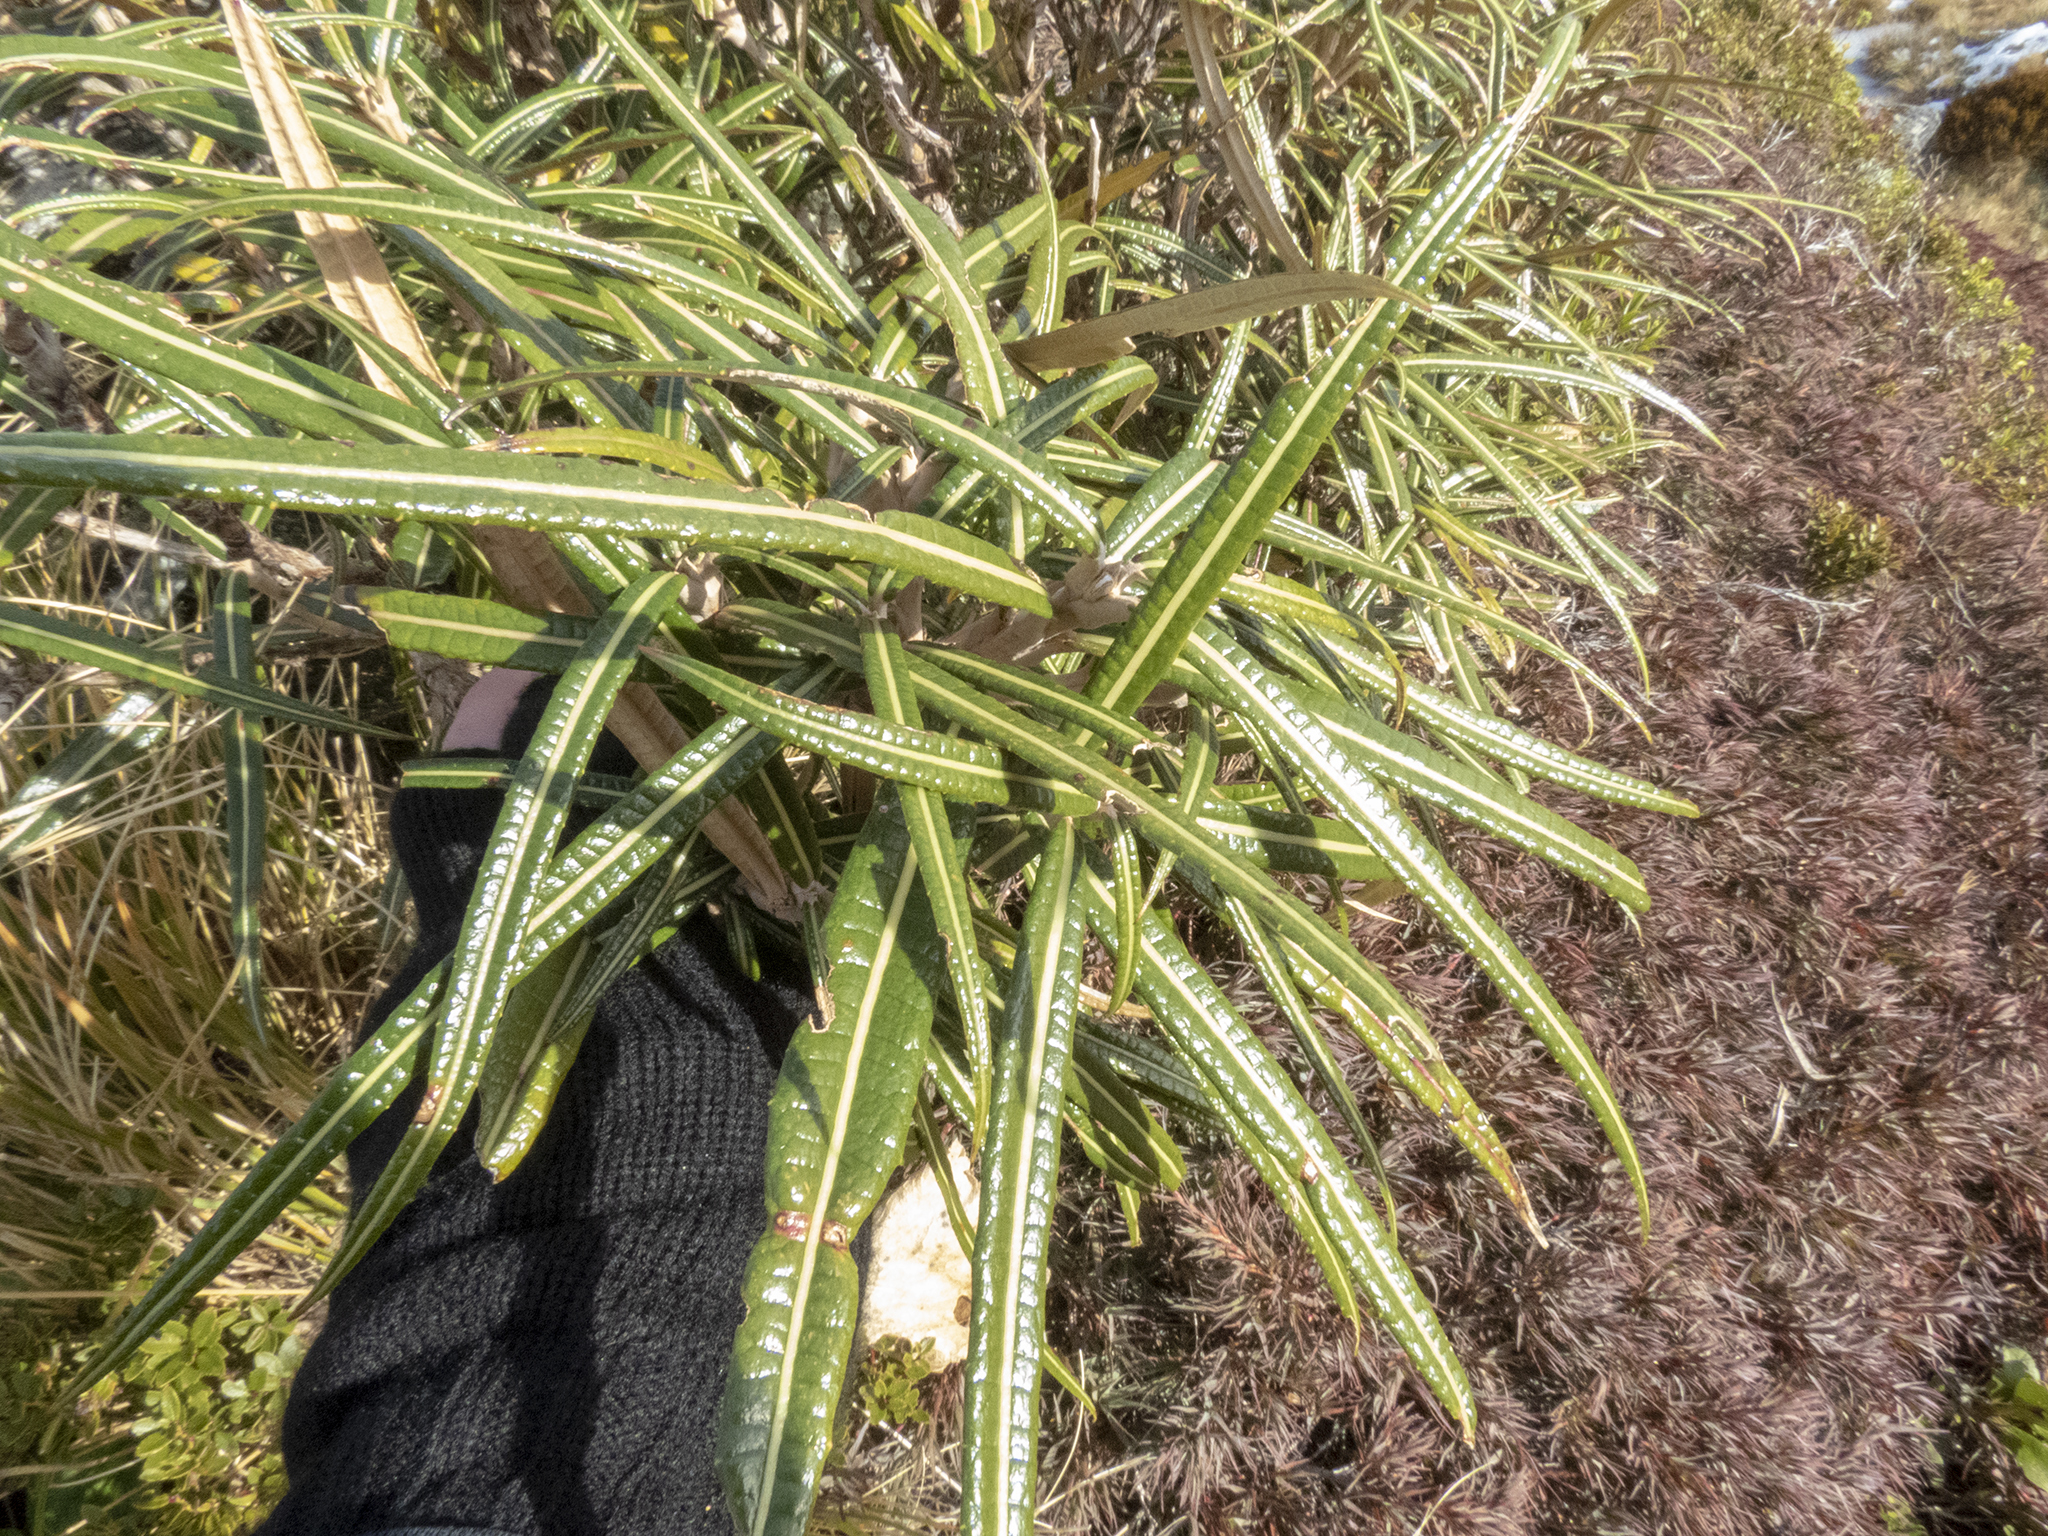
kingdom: Plantae
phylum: Tracheophyta
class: Magnoliopsida
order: Asterales
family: Asteraceae
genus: Olearia
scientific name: Olearia lacunosa
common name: Lancewood tree daisy
